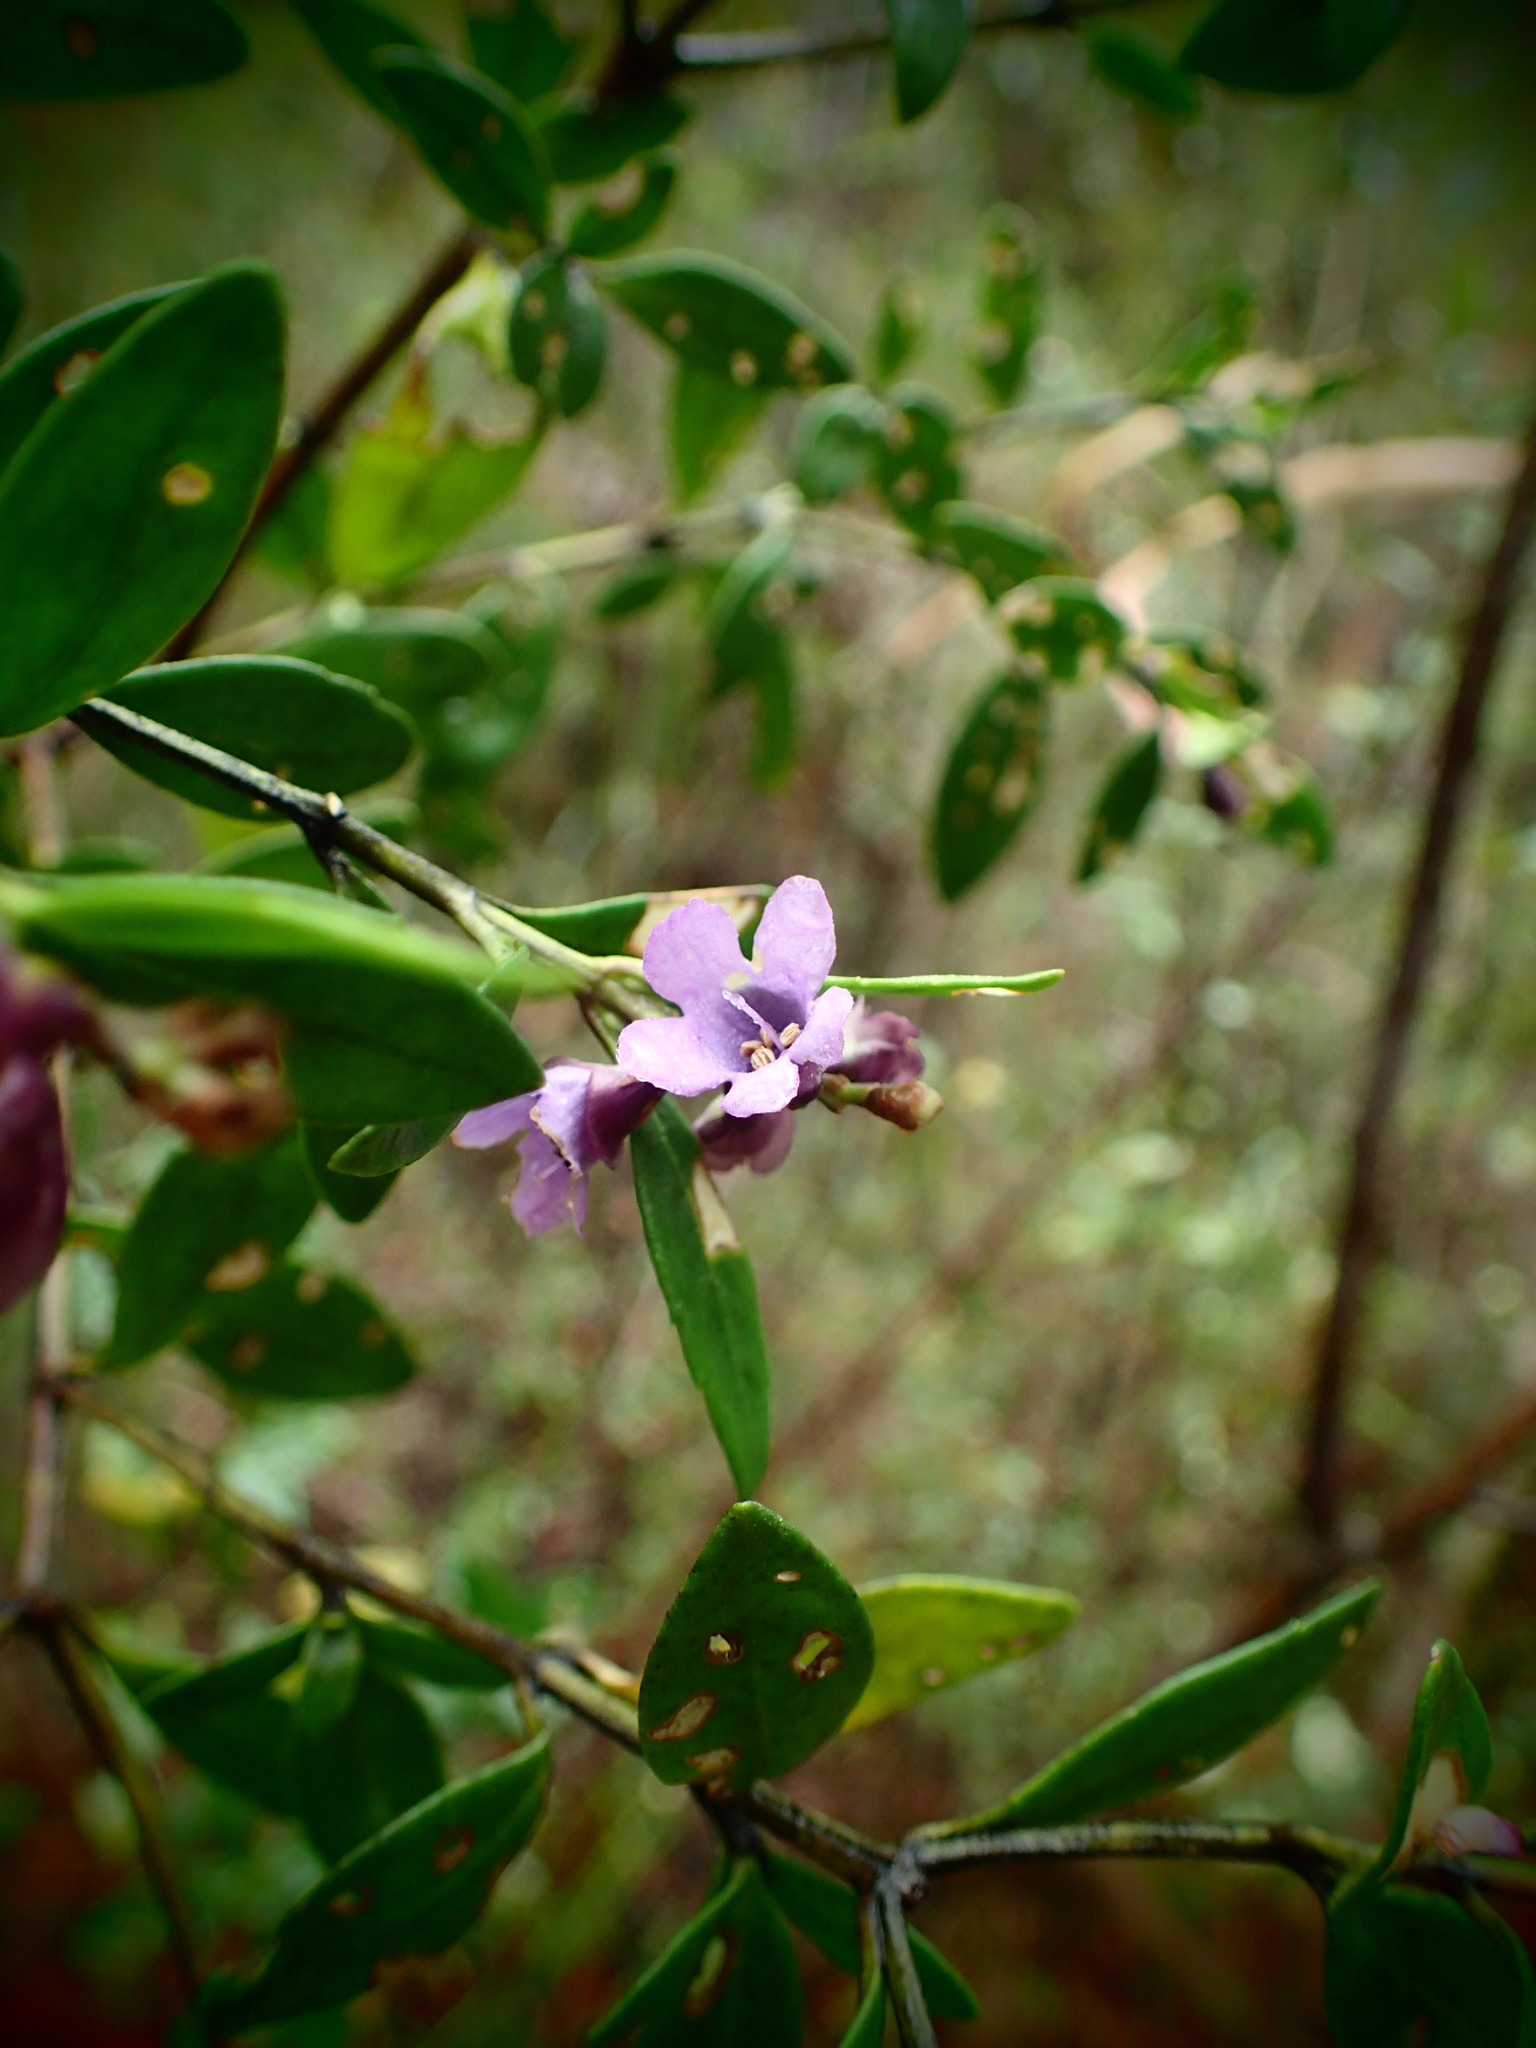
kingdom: Plantae
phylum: Tracheophyta
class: Magnoliopsida
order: Lamiales
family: Lamiaceae
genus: Prostanthera
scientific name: Prostanthera caerulea
